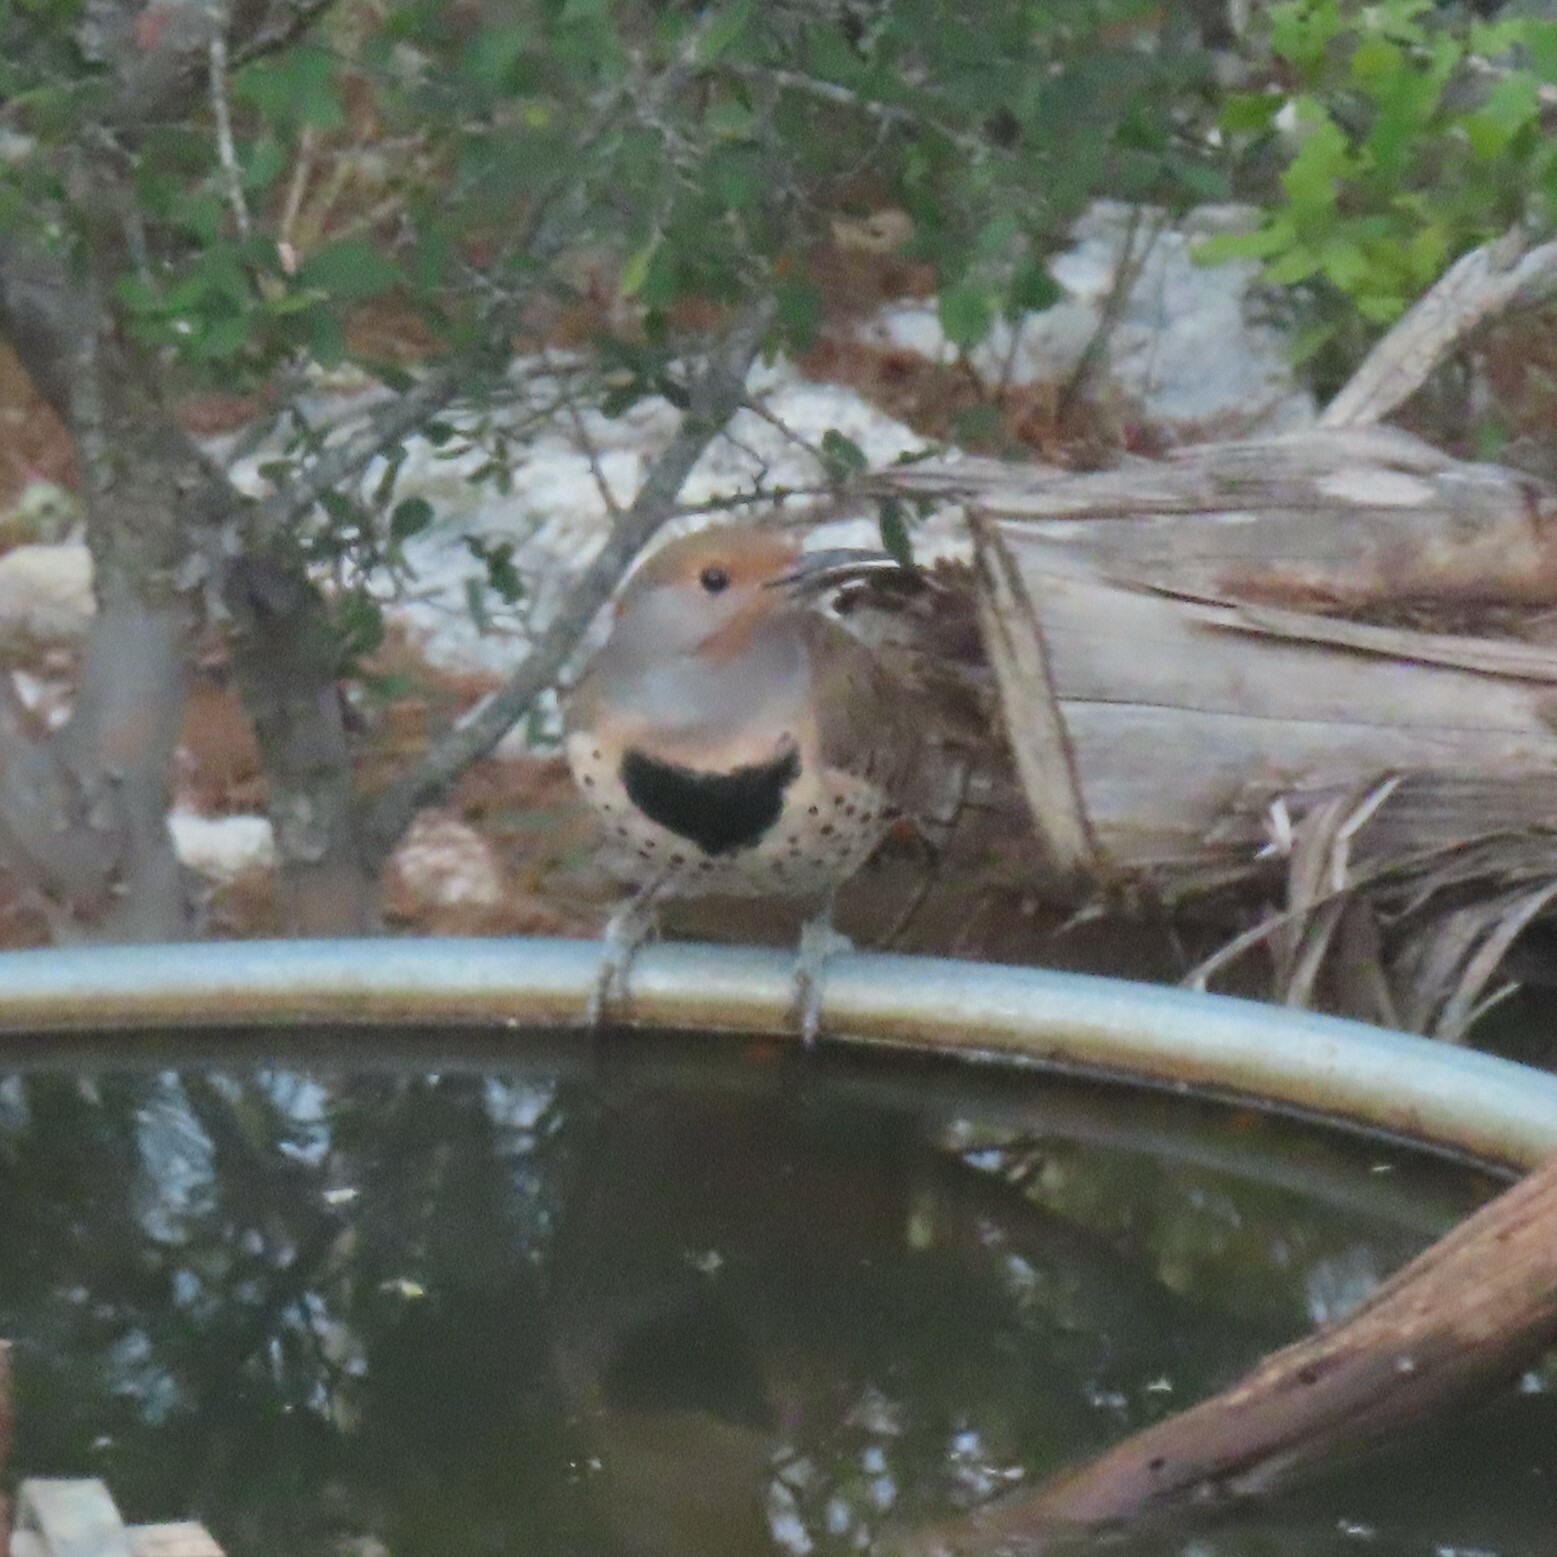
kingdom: Animalia
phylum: Chordata
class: Aves
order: Piciformes
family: Picidae
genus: Colaptes
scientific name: Colaptes auratus
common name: Northern flicker
